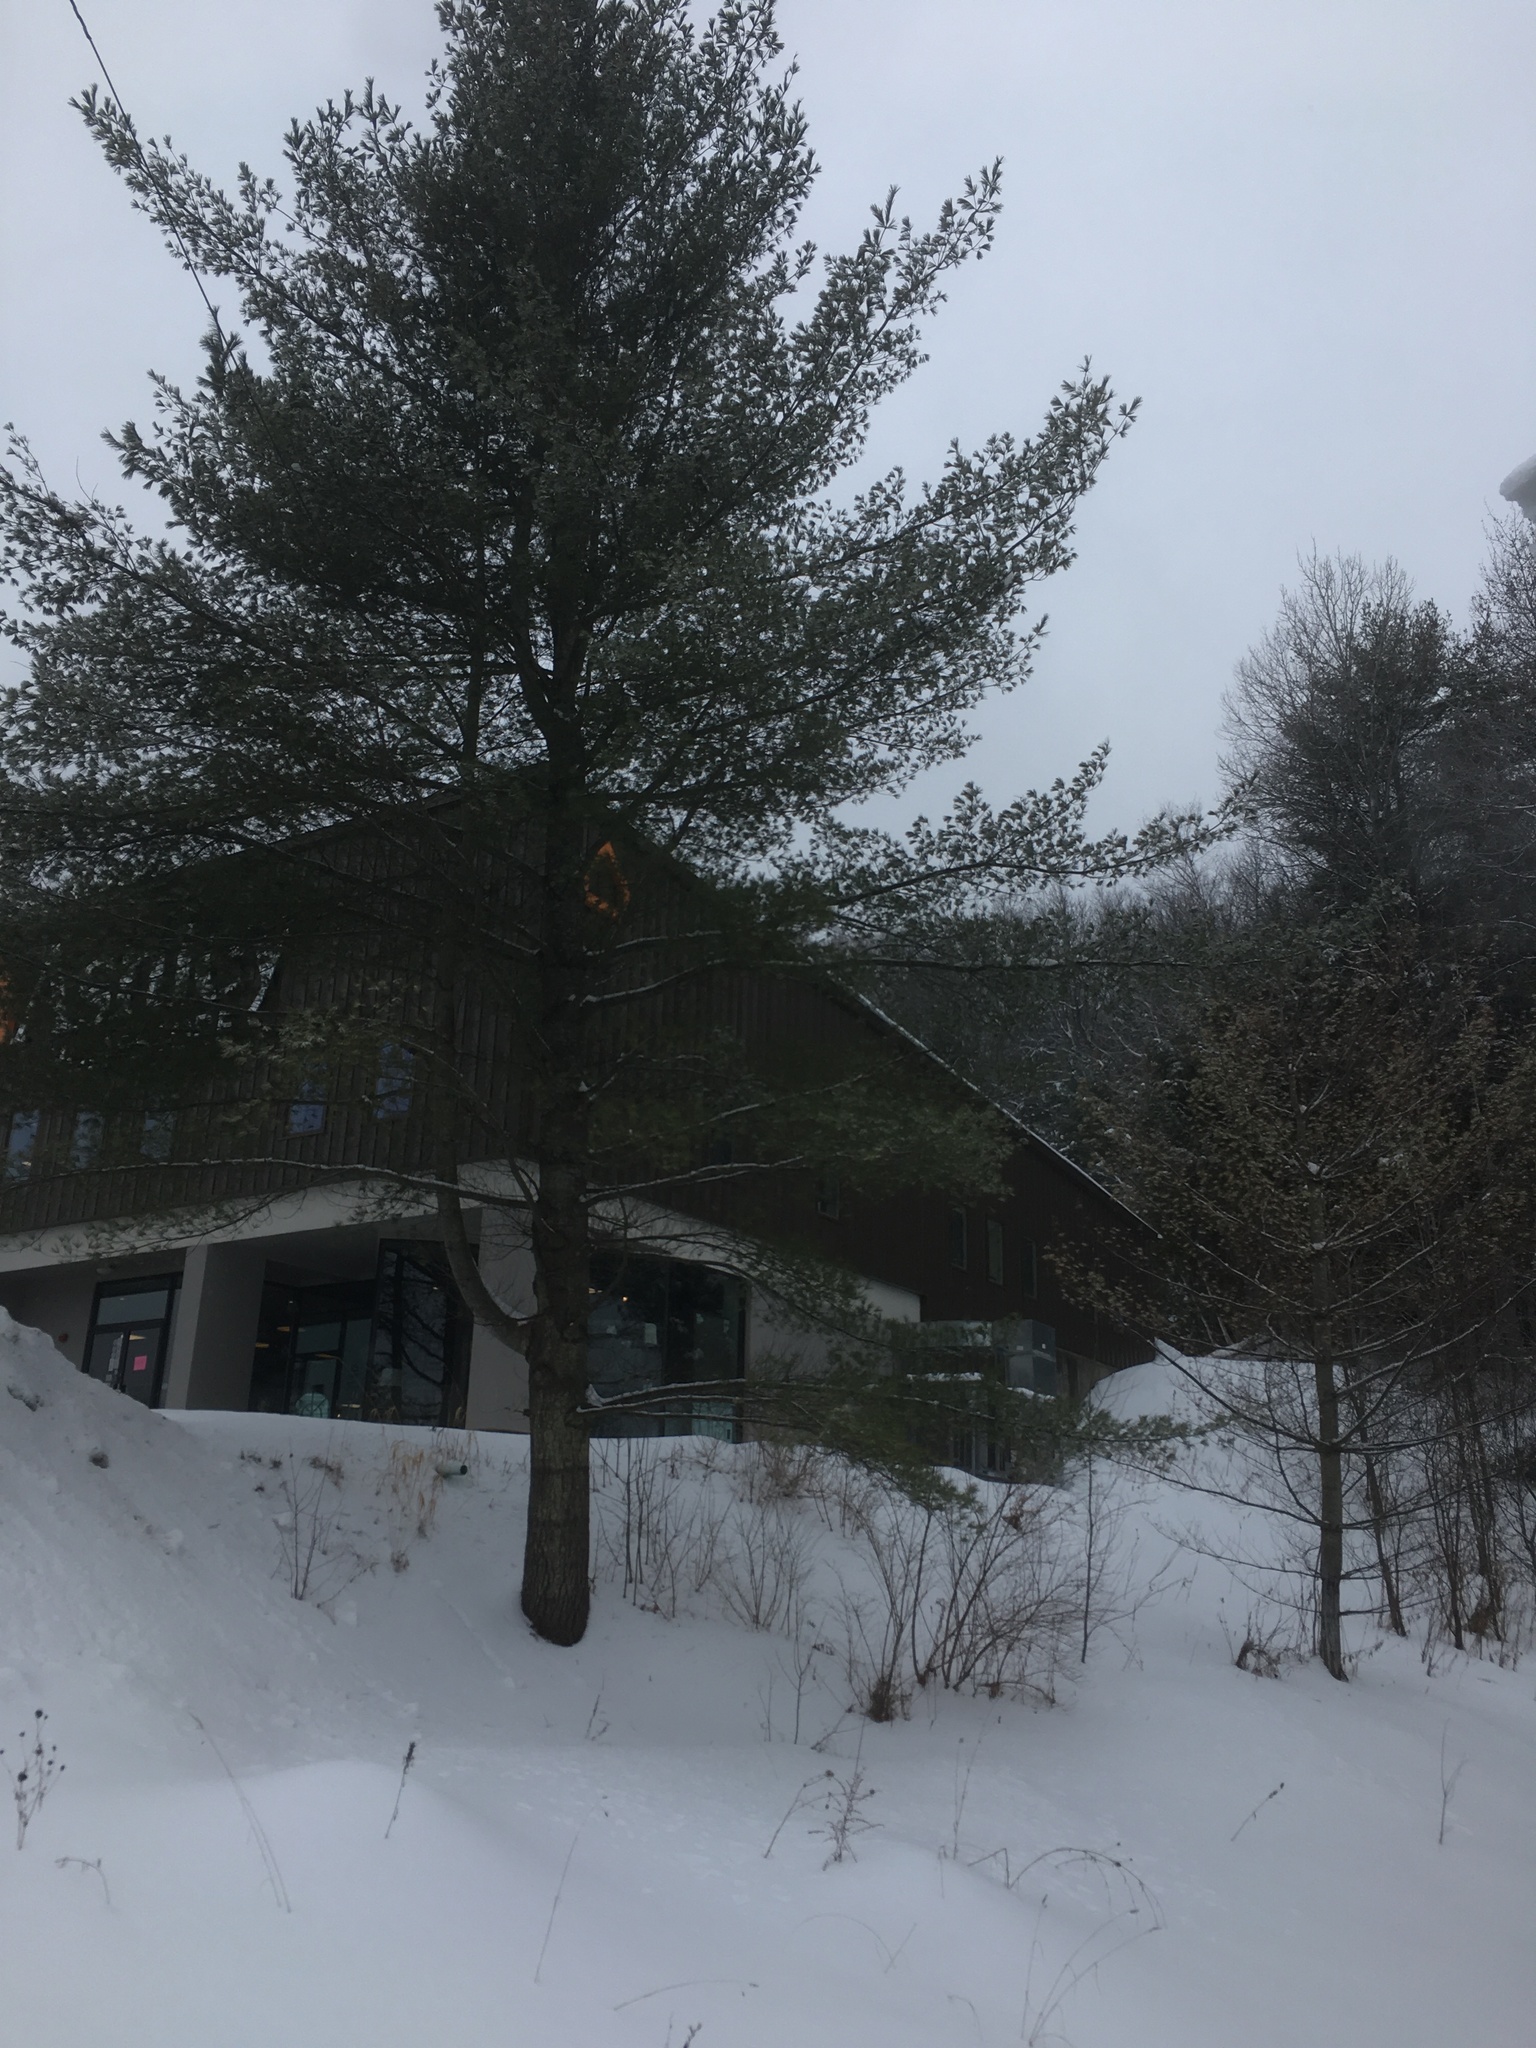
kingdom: Plantae
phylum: Tracheophyta
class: Pinopsida
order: Pinales
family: Pinaceae
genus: Pinus
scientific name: Pinus strobus
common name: Weymouth pine
